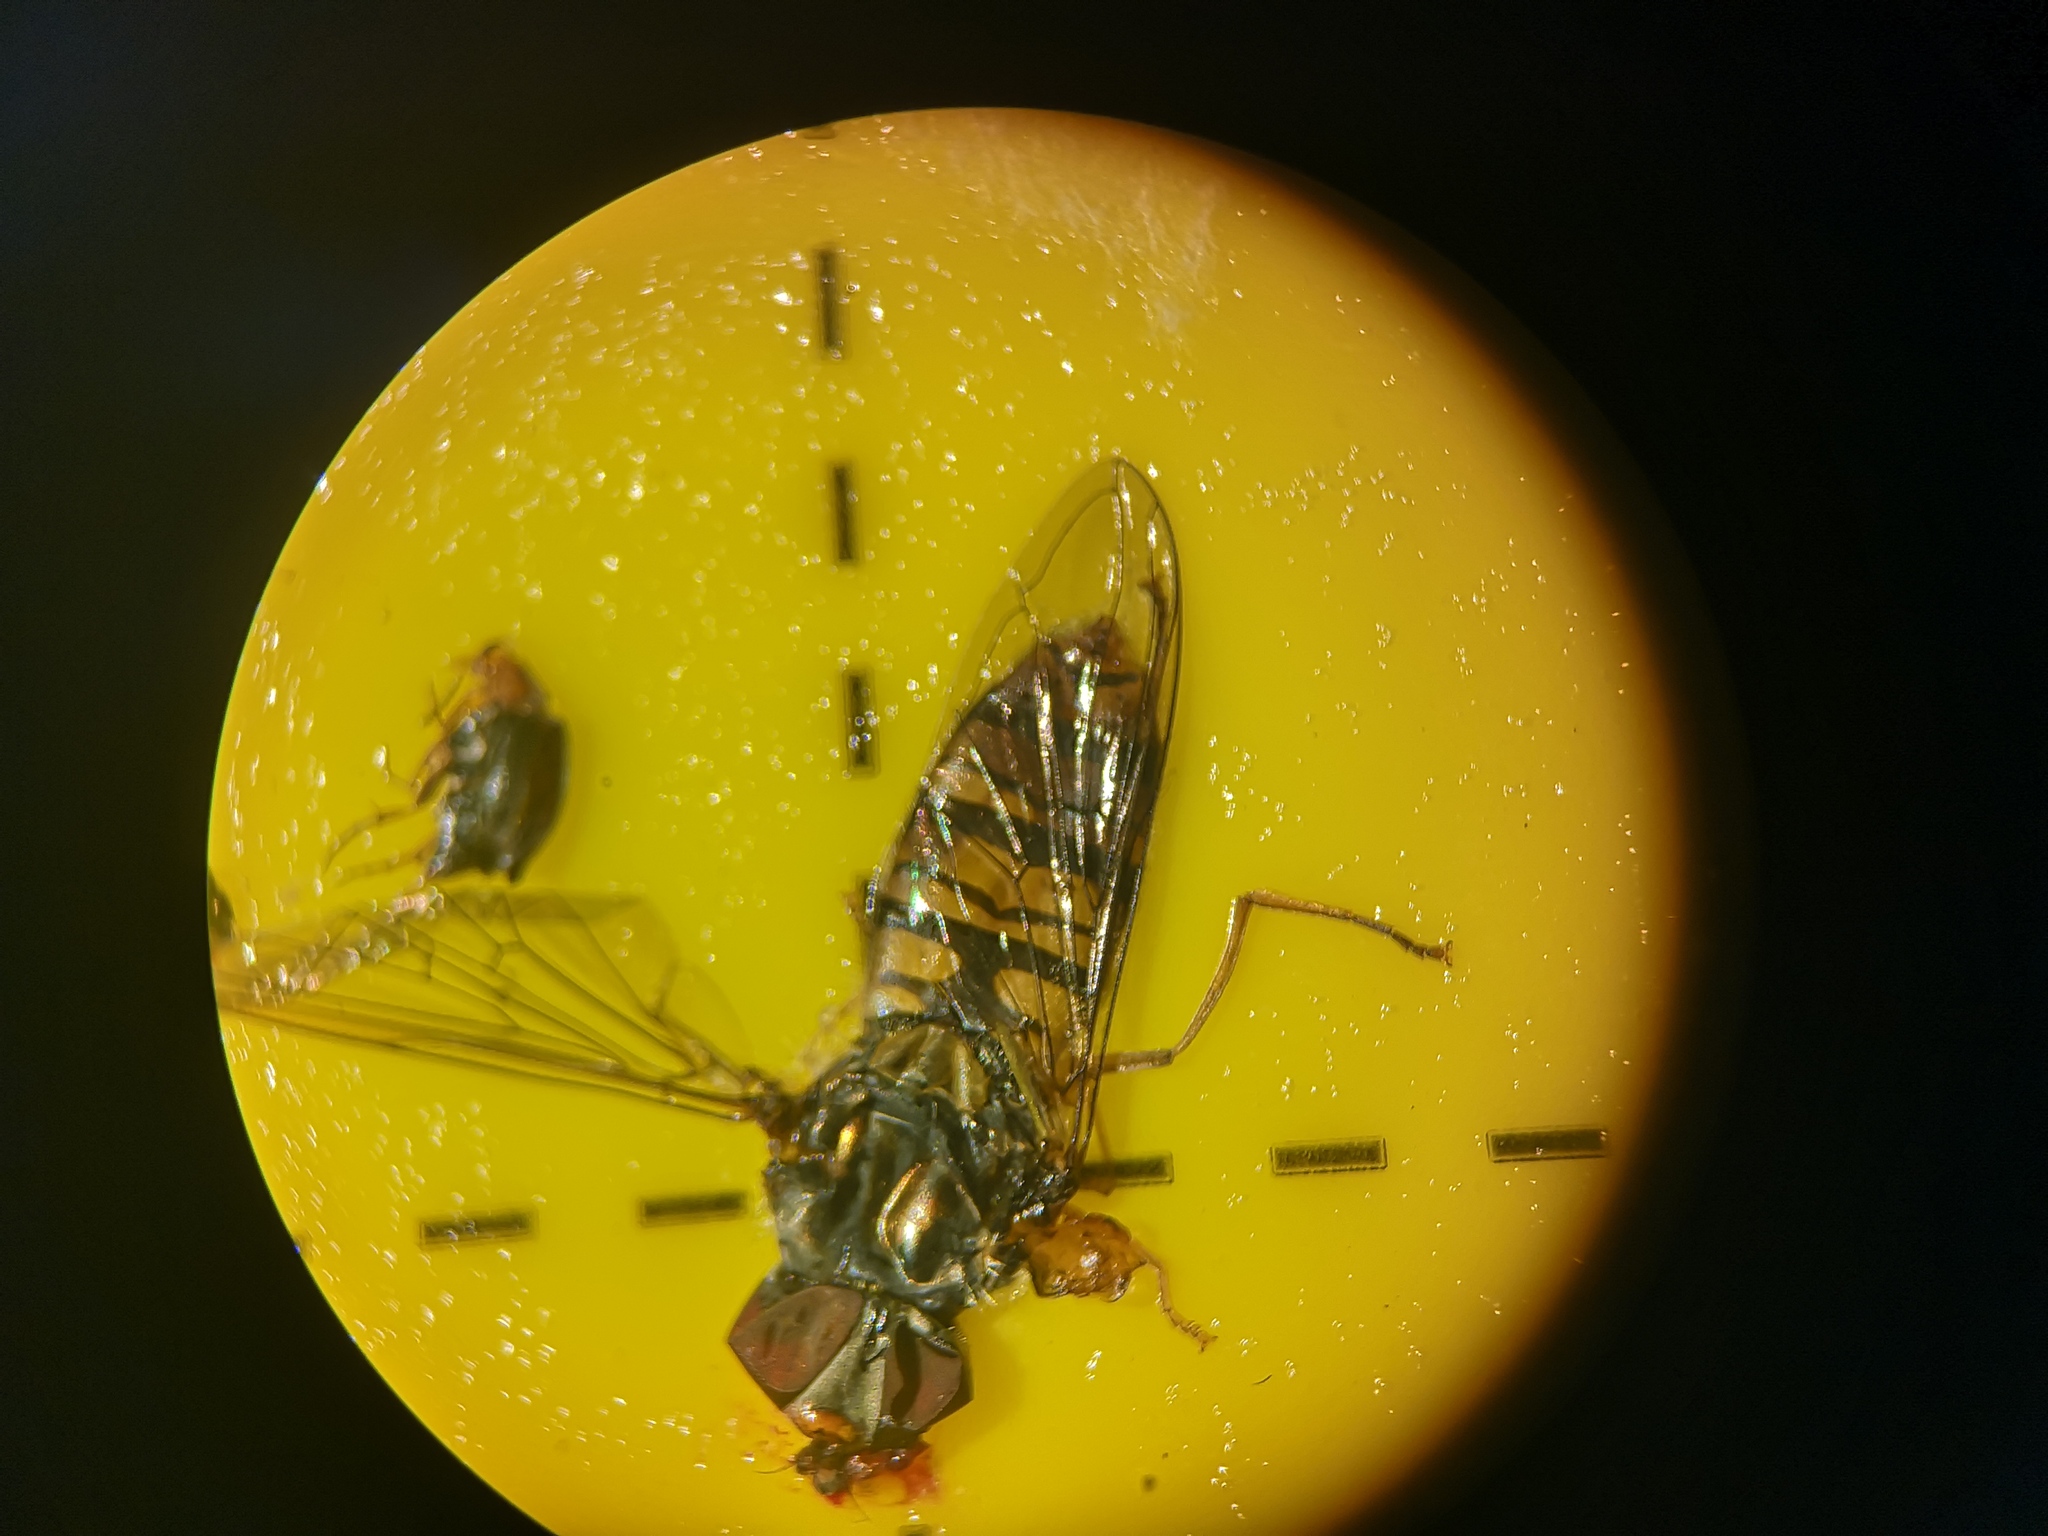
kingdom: Animalia
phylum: Arthropoda
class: Insecta
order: Diptera
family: Syrphidae
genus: Episyrphus
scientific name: Episyrphus balteatus
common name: Marmalade hoverfly
